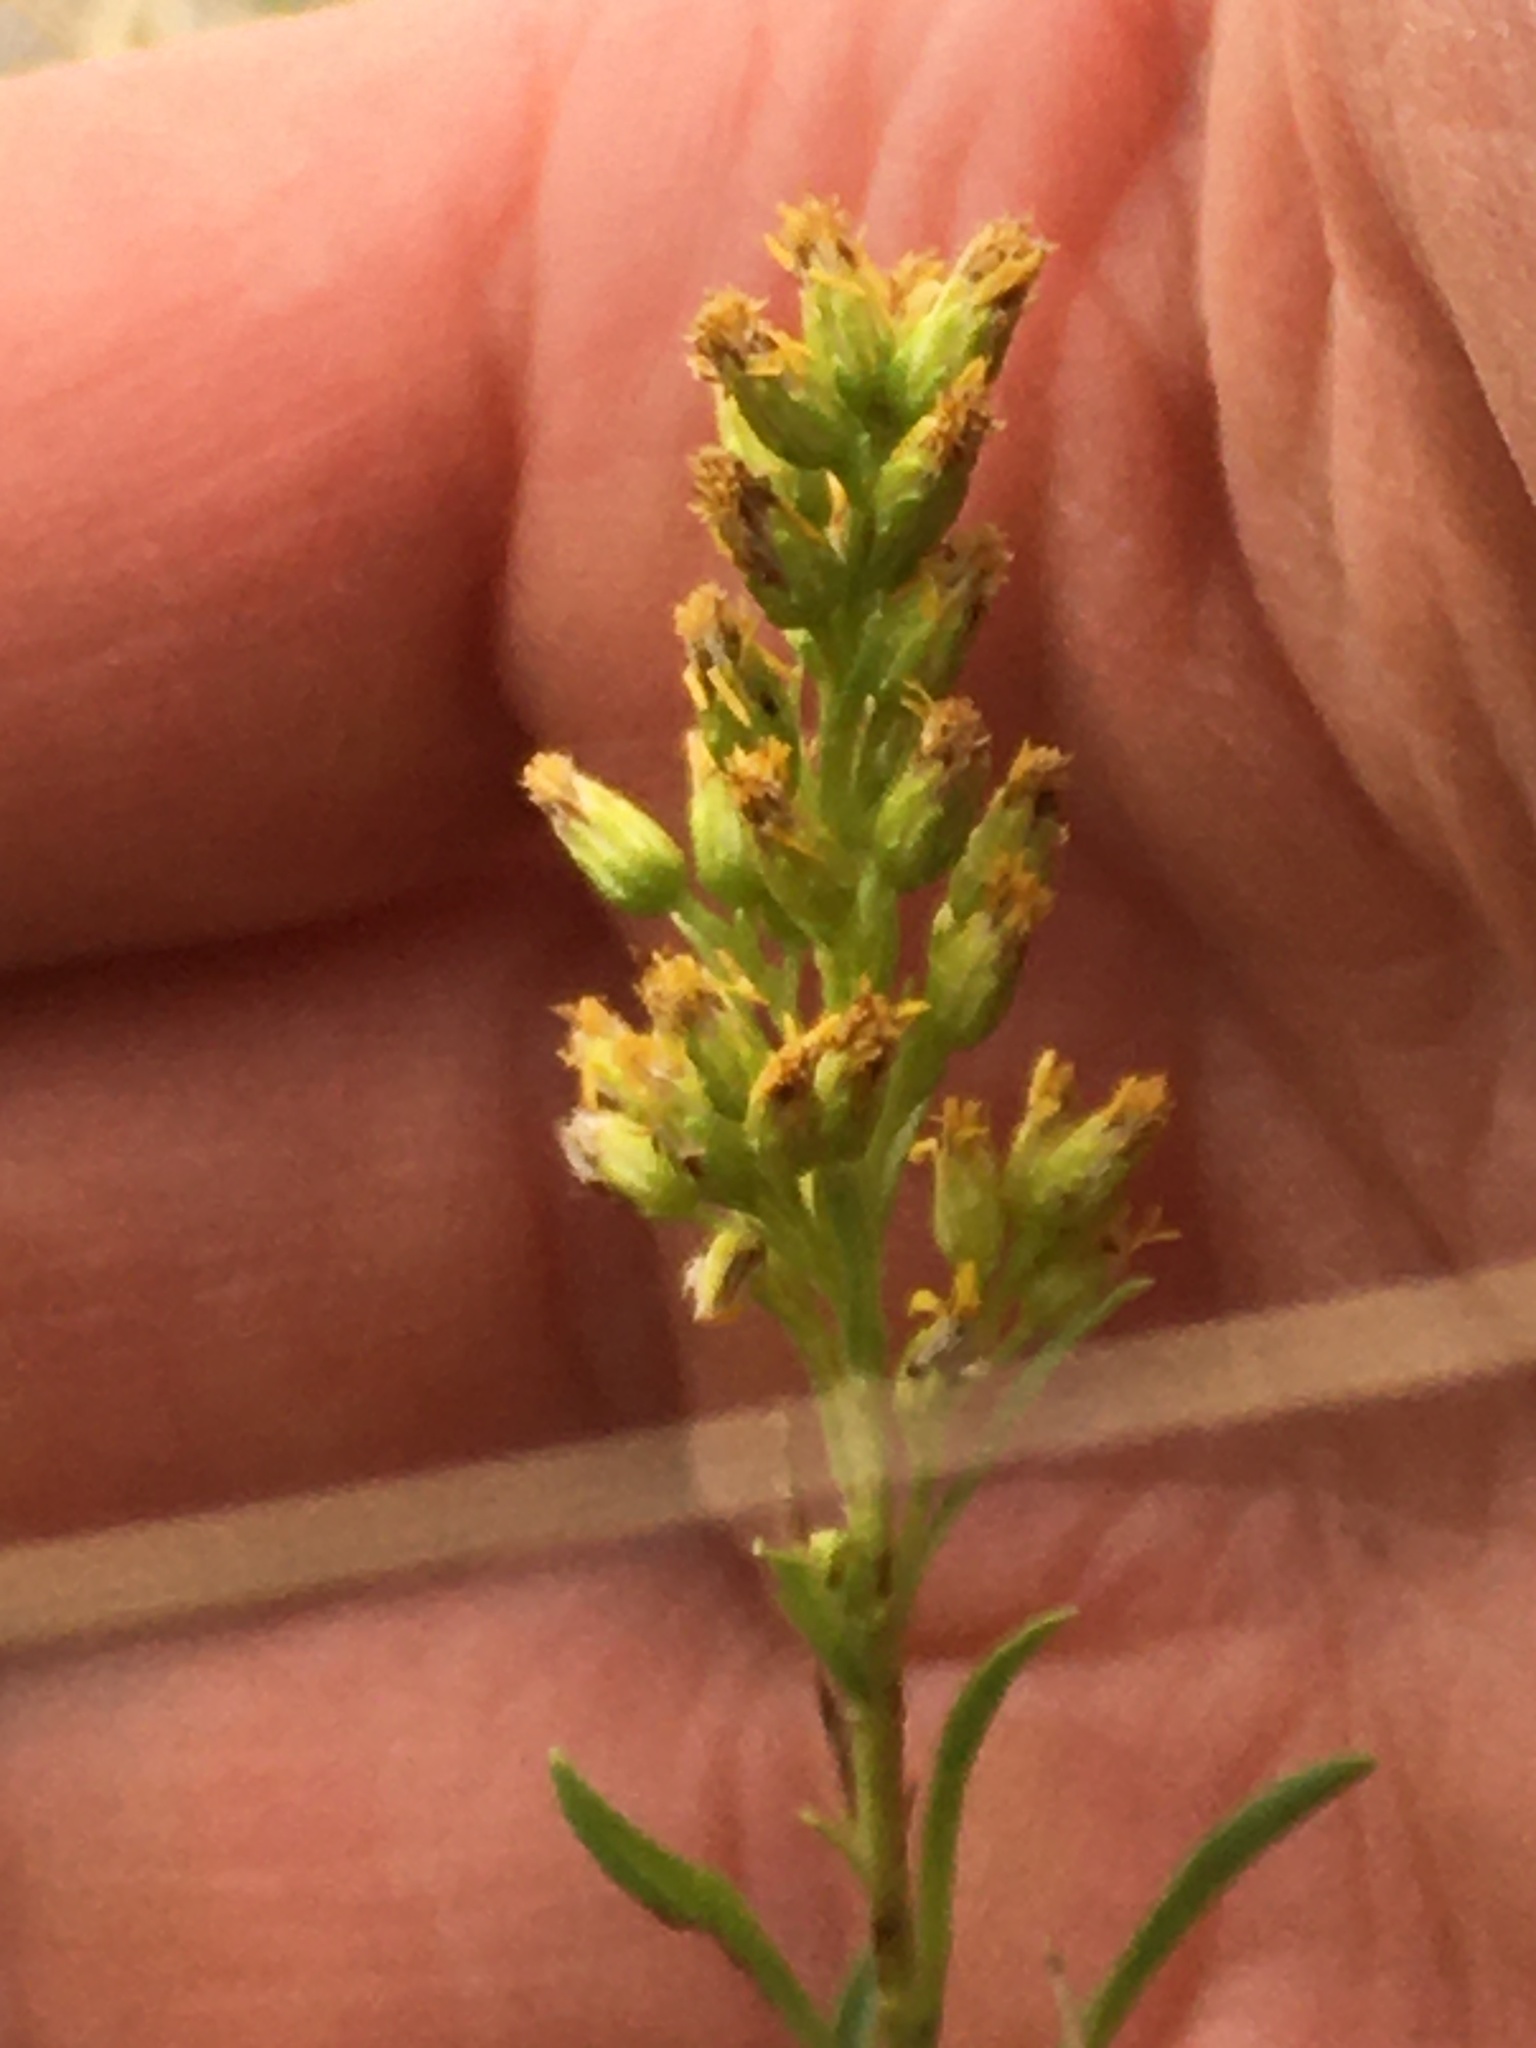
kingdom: Plantae
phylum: Tracheophyta
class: Magnoliopsida
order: Asterales
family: Asteraceae
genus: Solidago
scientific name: Solidago missouriensis
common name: Prairie goldenrod
